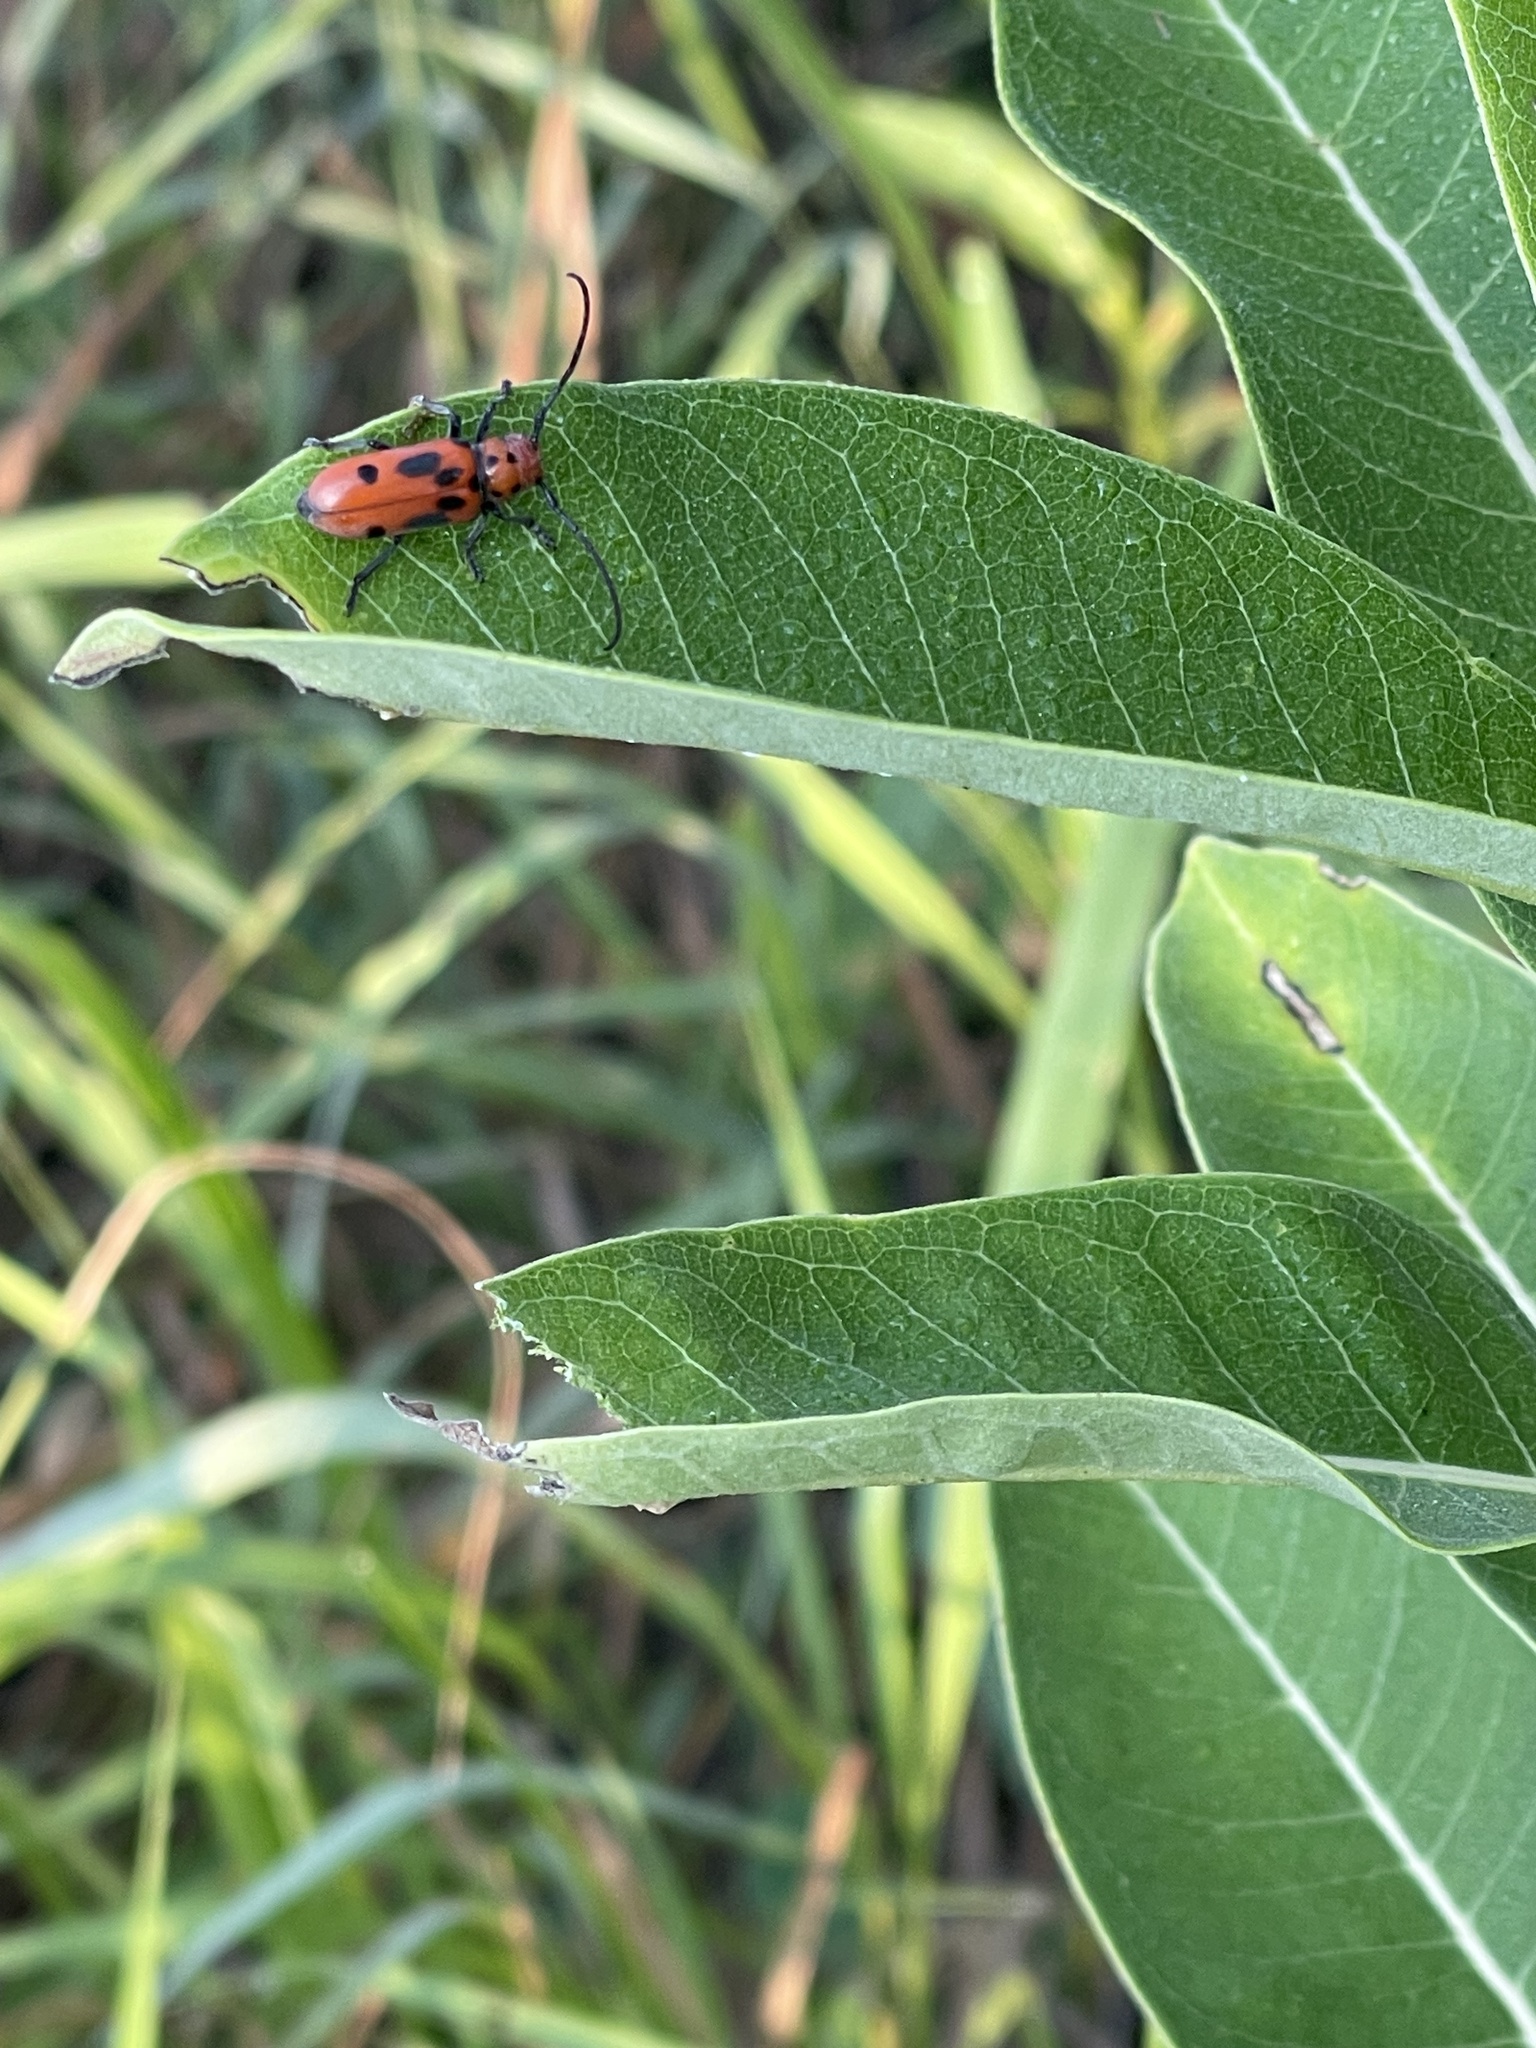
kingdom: Animalia
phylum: Arthropoda
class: Insecta
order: Coleoptera
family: Cerambycidae
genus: Tetraopes
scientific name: Tetraopes tetrophthalmus
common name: Red milkweed beetle
